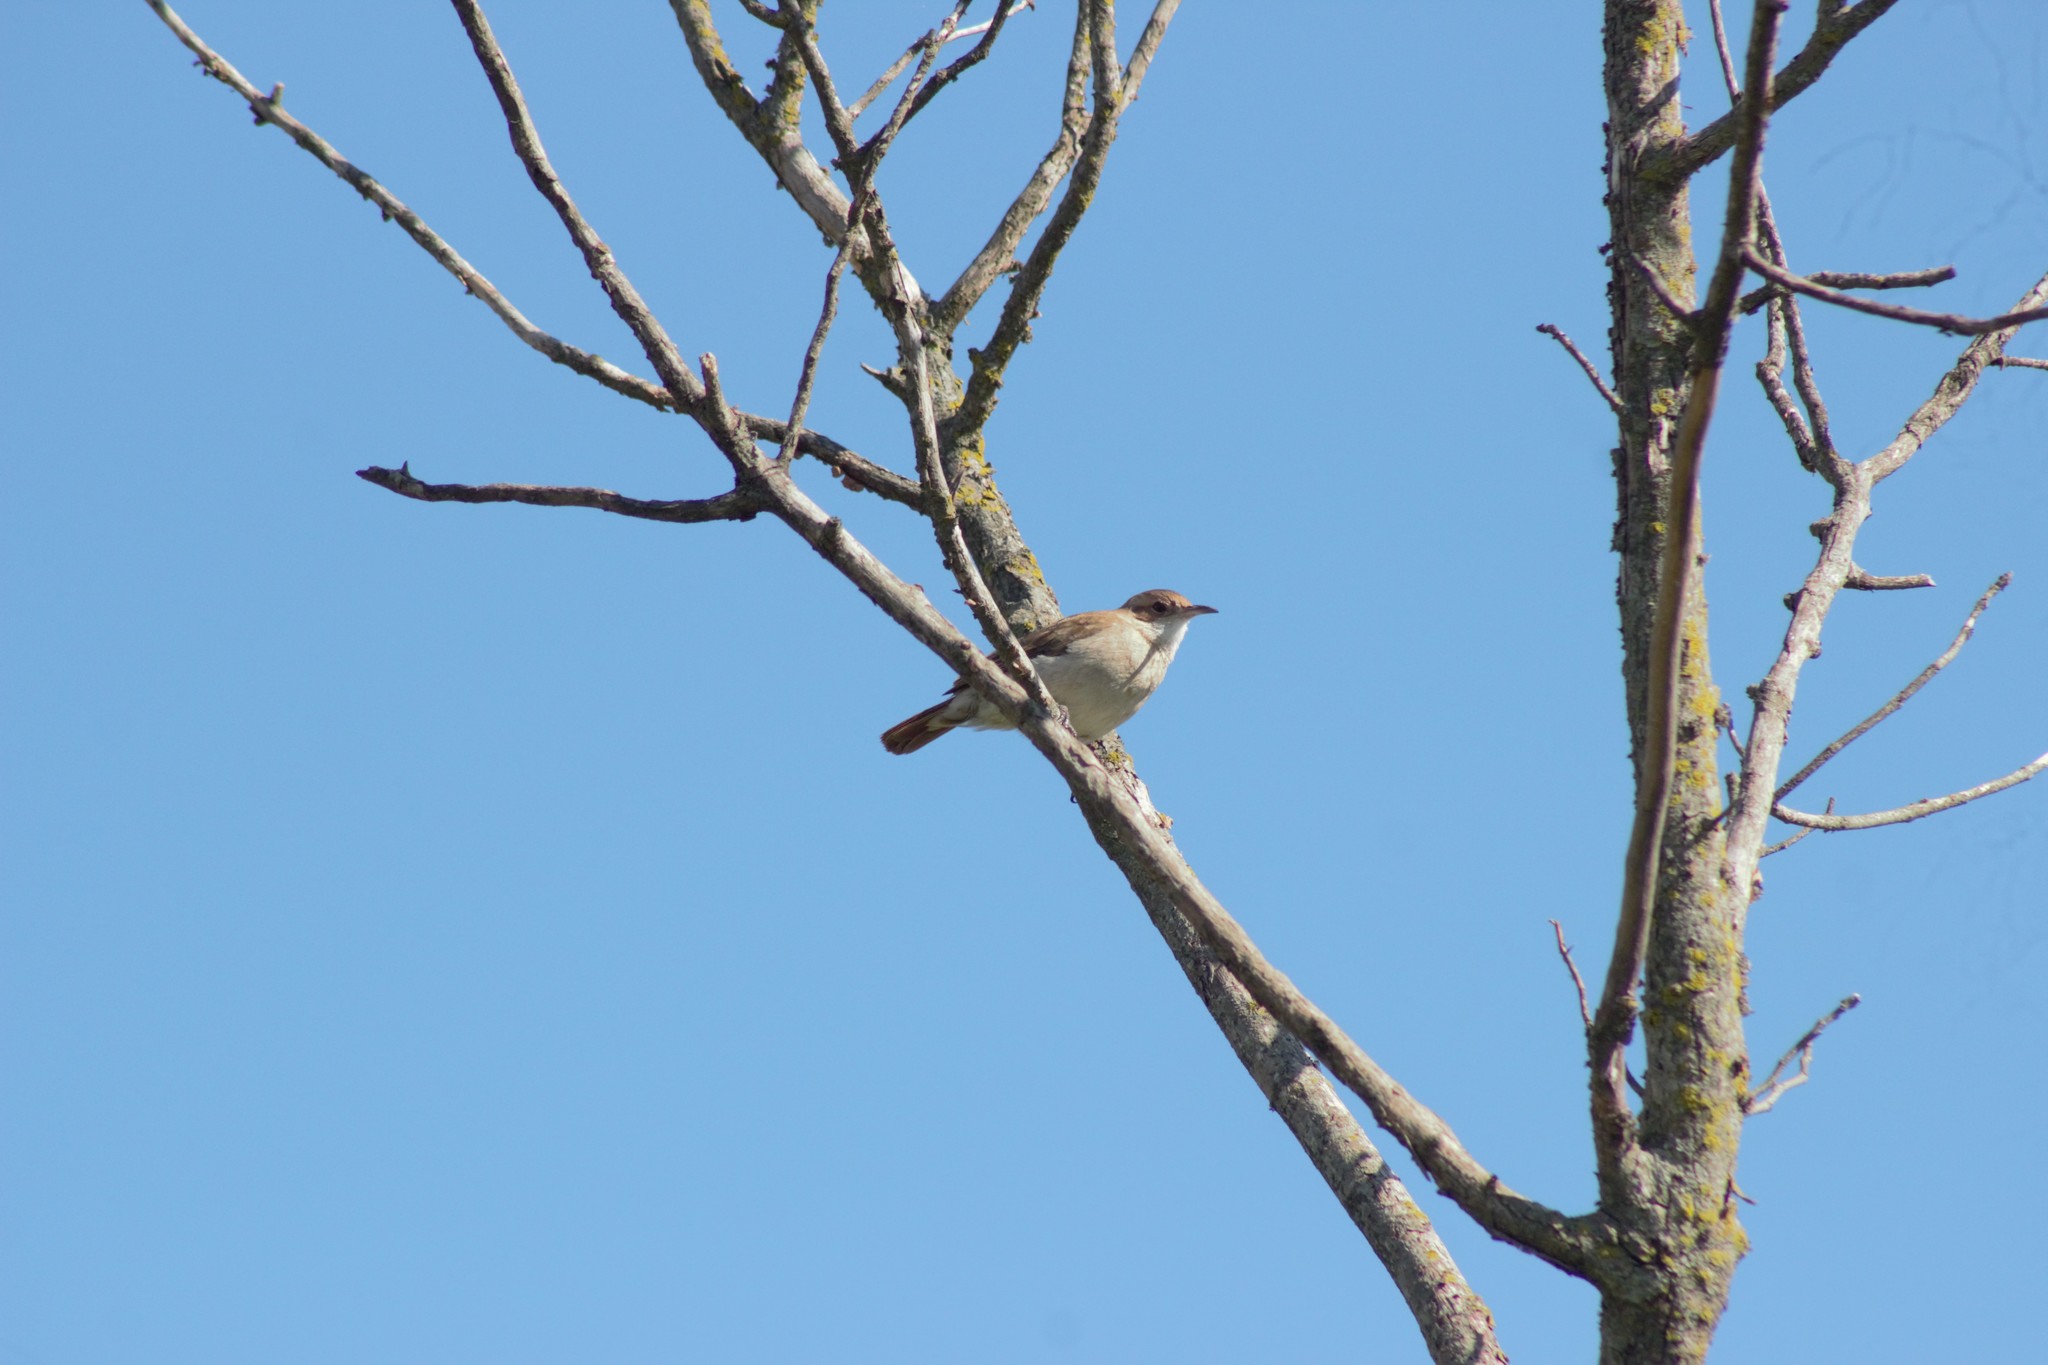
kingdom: Animalia
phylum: Chordata
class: Aves
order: Passeriformes
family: Furnariidae
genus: Furnarius
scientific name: Furnarius rufus
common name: Rufous hornero
